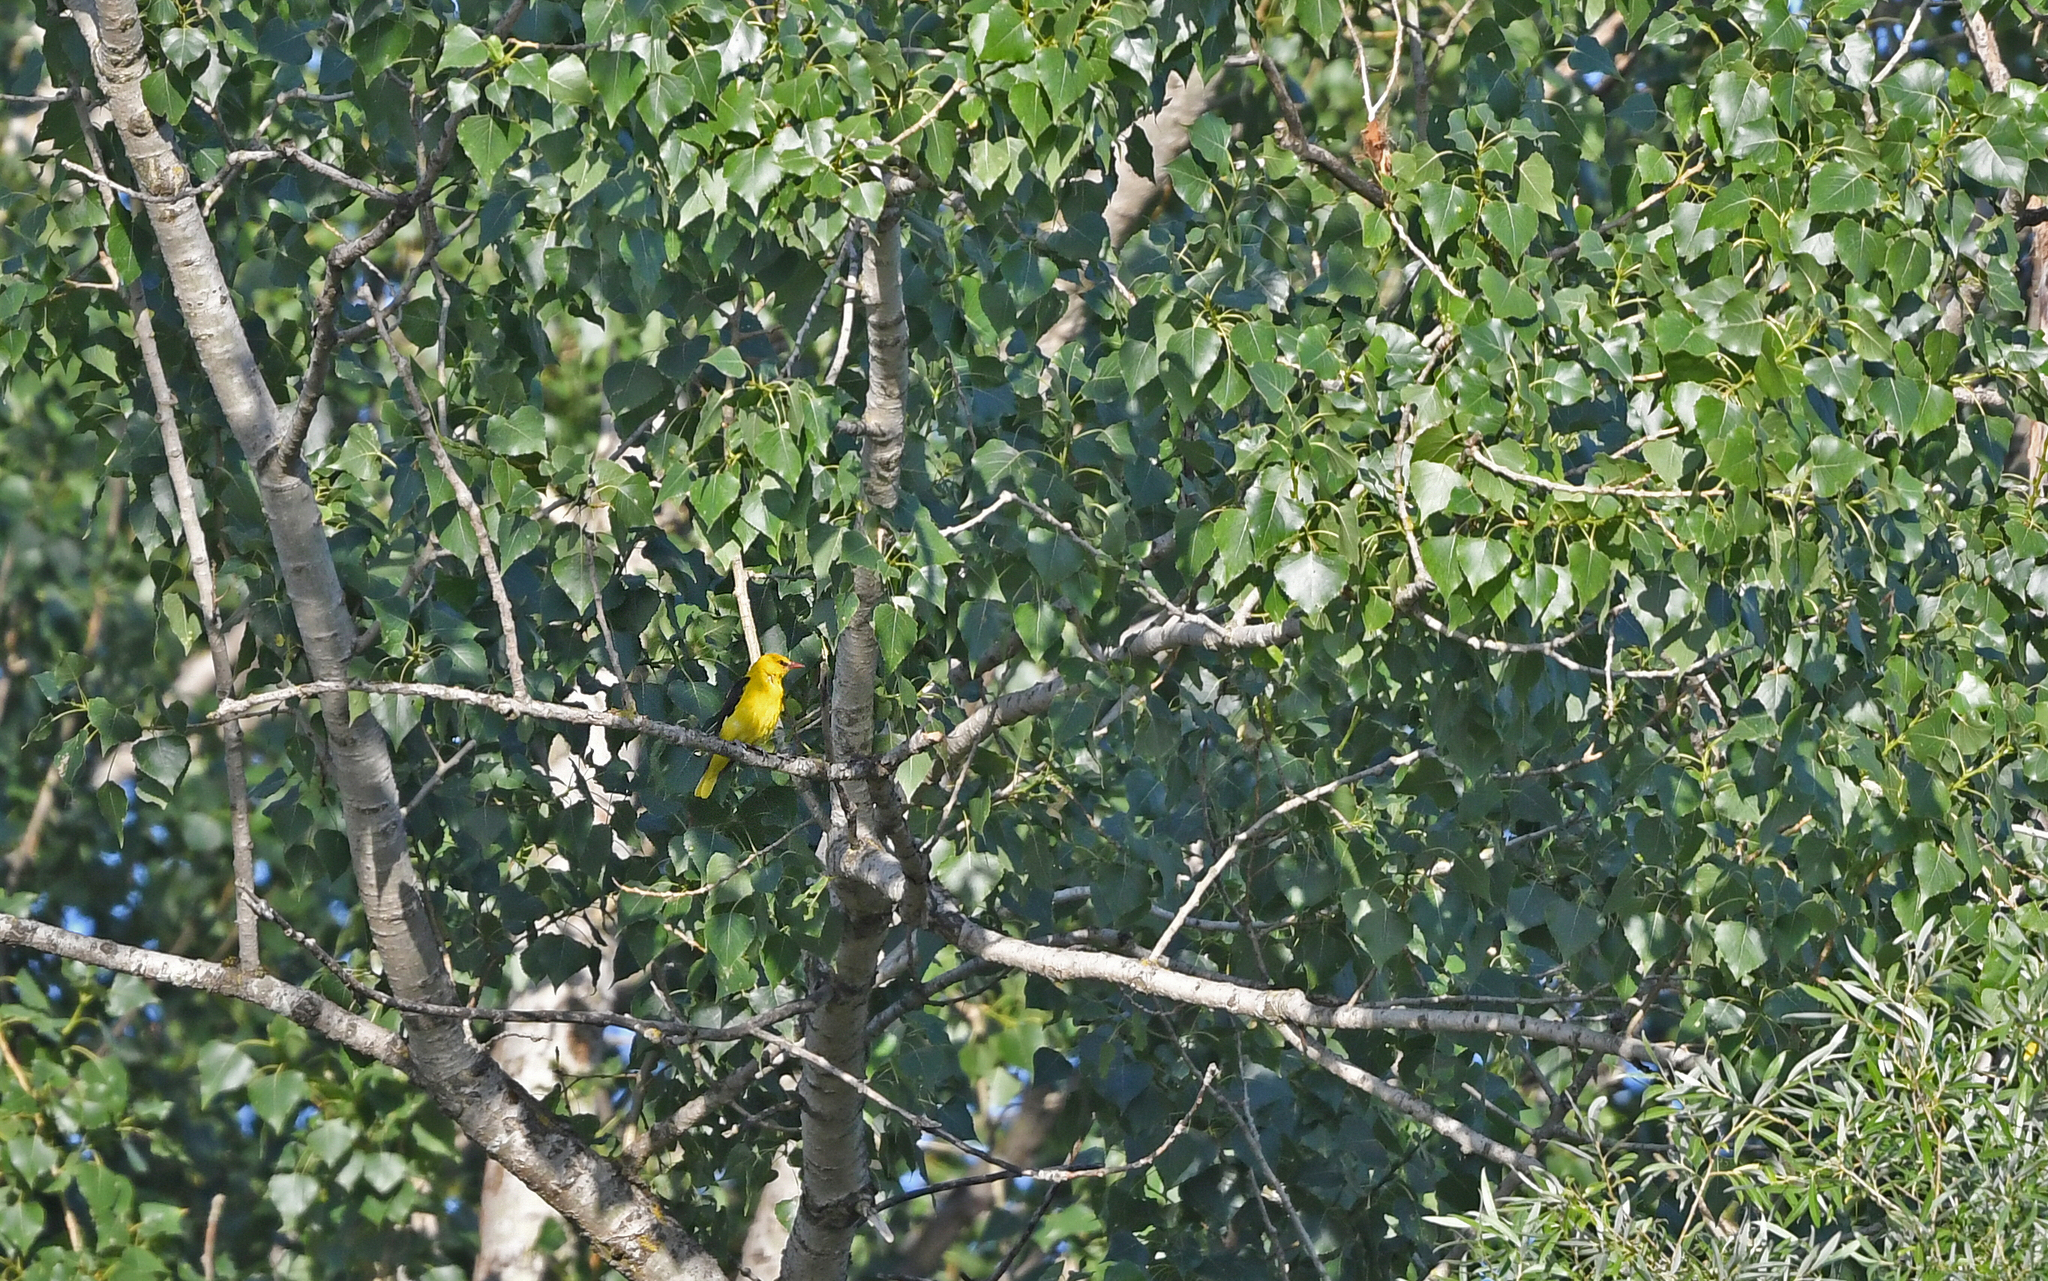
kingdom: Animalia
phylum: Chordata
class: Aves
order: Passeriformes
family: Oriolidae
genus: Oriolus
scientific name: Oriolus oriolus
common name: Eurasian golden oriole
